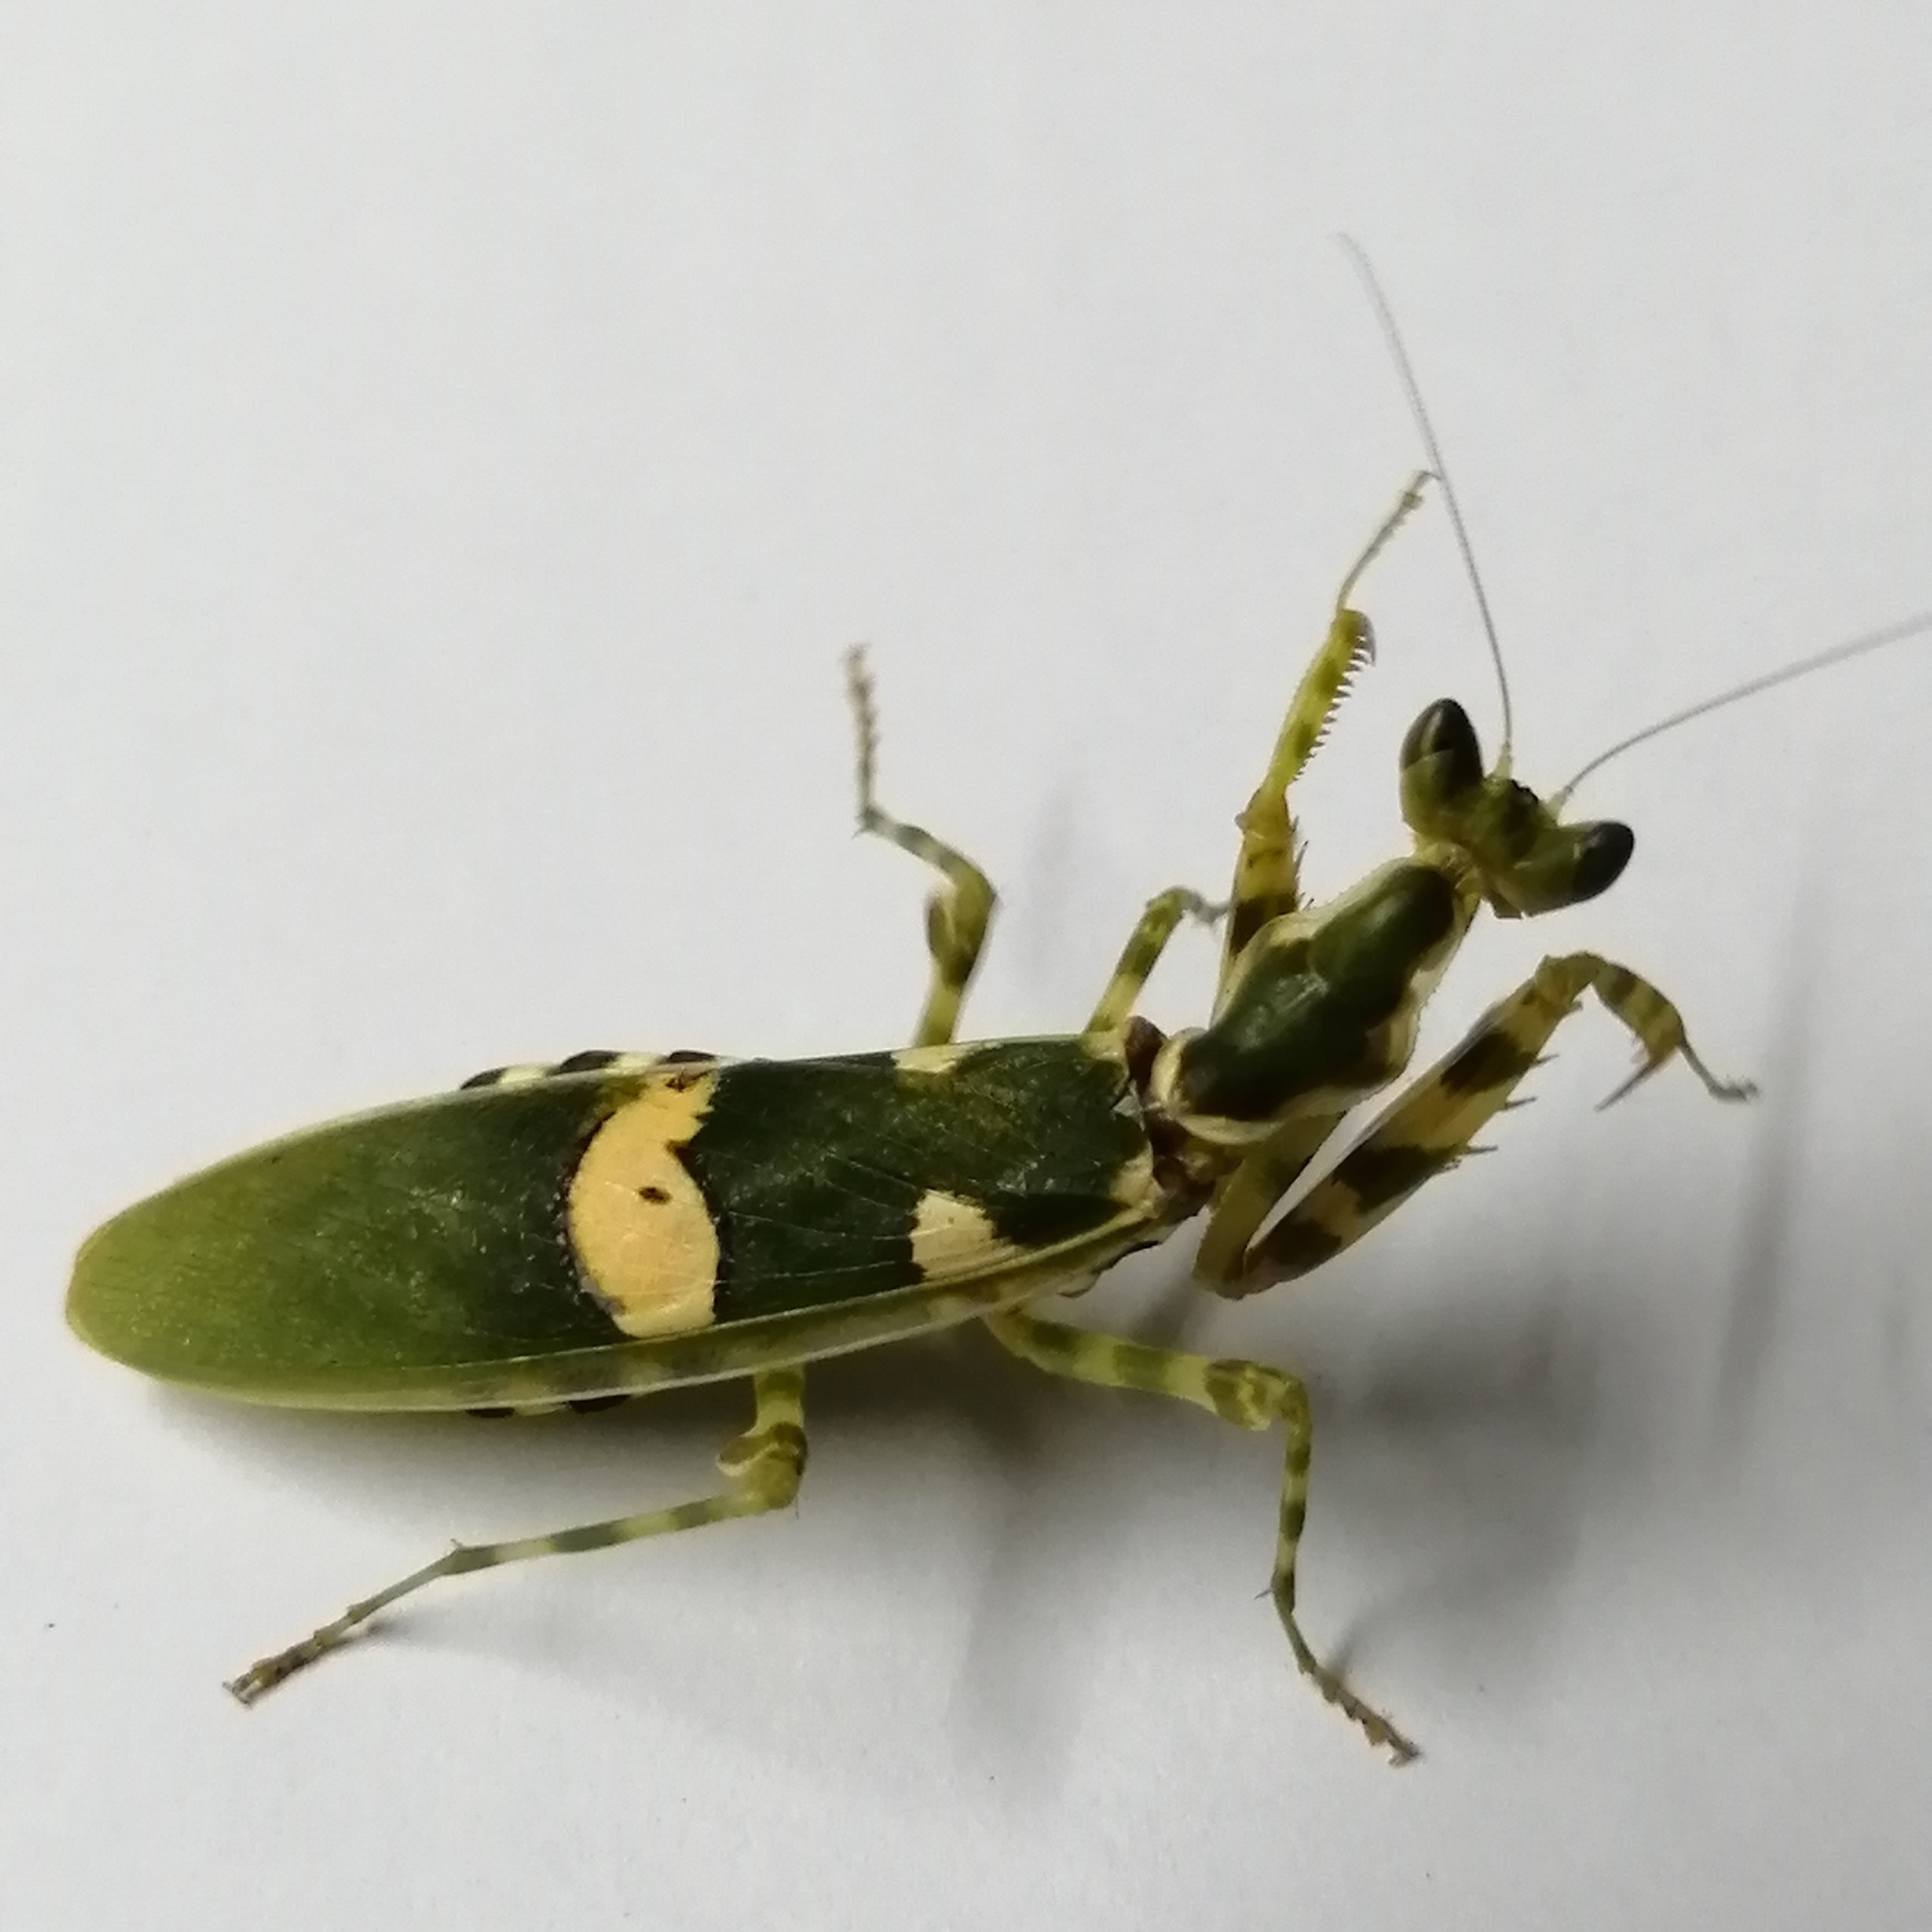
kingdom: Animalia
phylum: Arthropoda
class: Insecta
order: Mantodea
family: Hymenopodidae
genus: Creobroter
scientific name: Creobroter pictipennis
